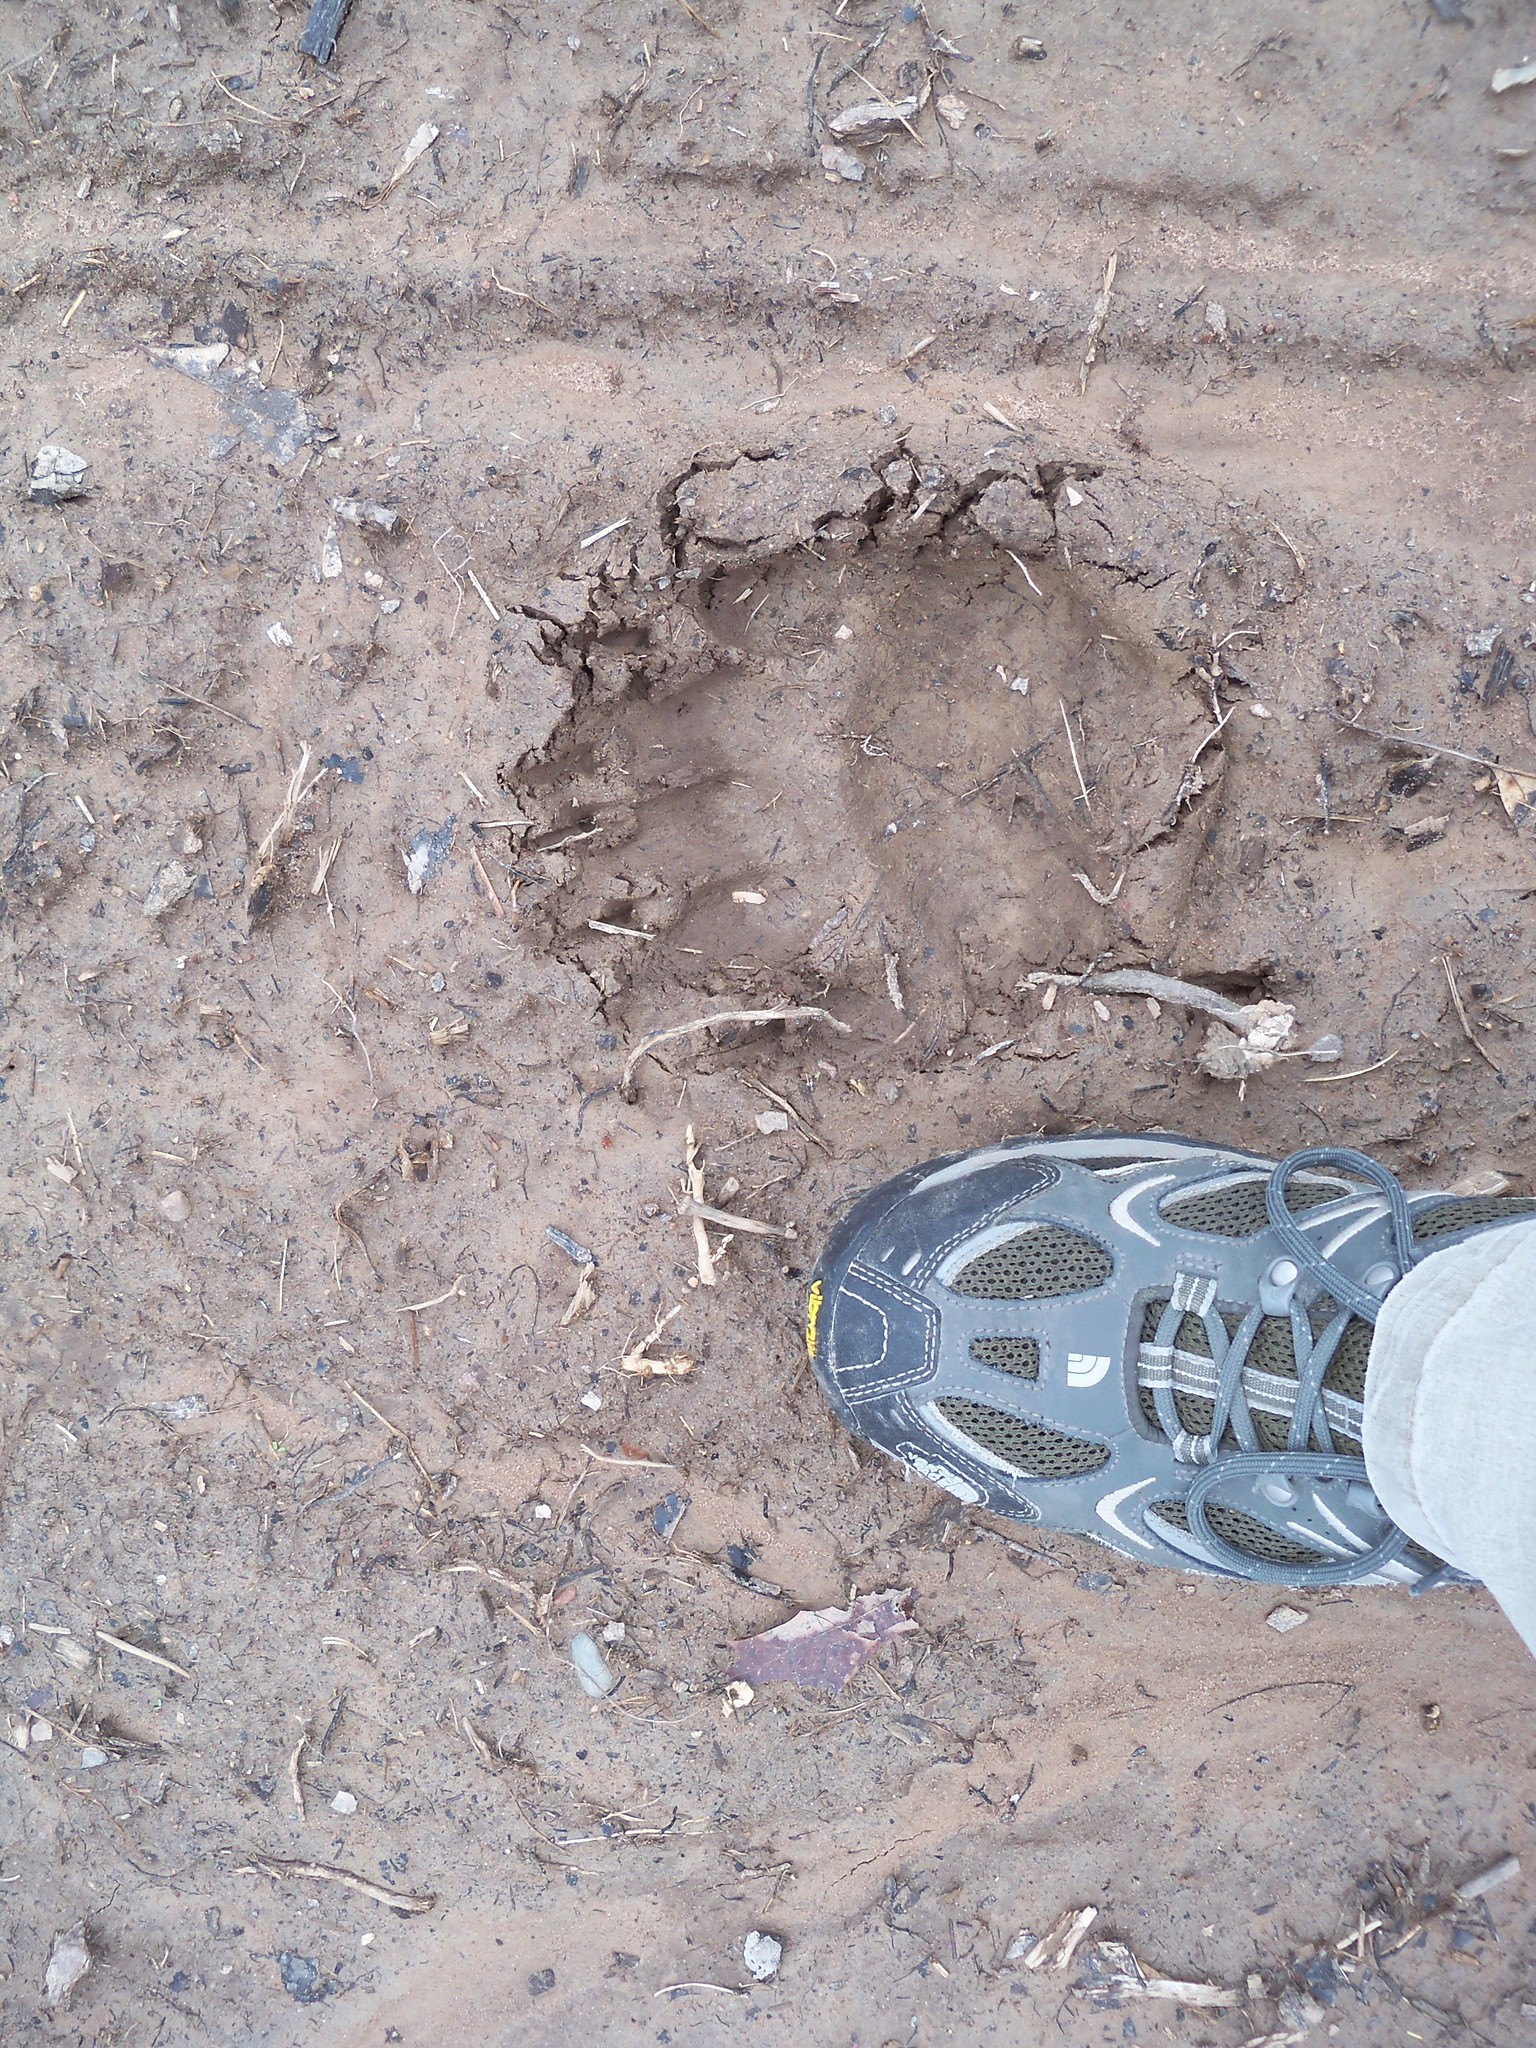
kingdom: Animalia
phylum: Chordata
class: Mammalia
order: Carnivora
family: Ursidae
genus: Ursus
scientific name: Ursus americanus
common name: American black bear
